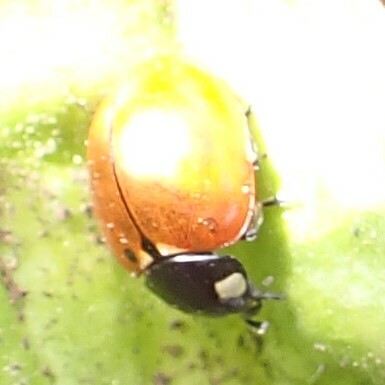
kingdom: Animalia
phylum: Arthropoda
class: Insecta
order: Coleoptera
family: Coccinellidae
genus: Coccinella
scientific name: Coccinella californica
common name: Lady beetle
